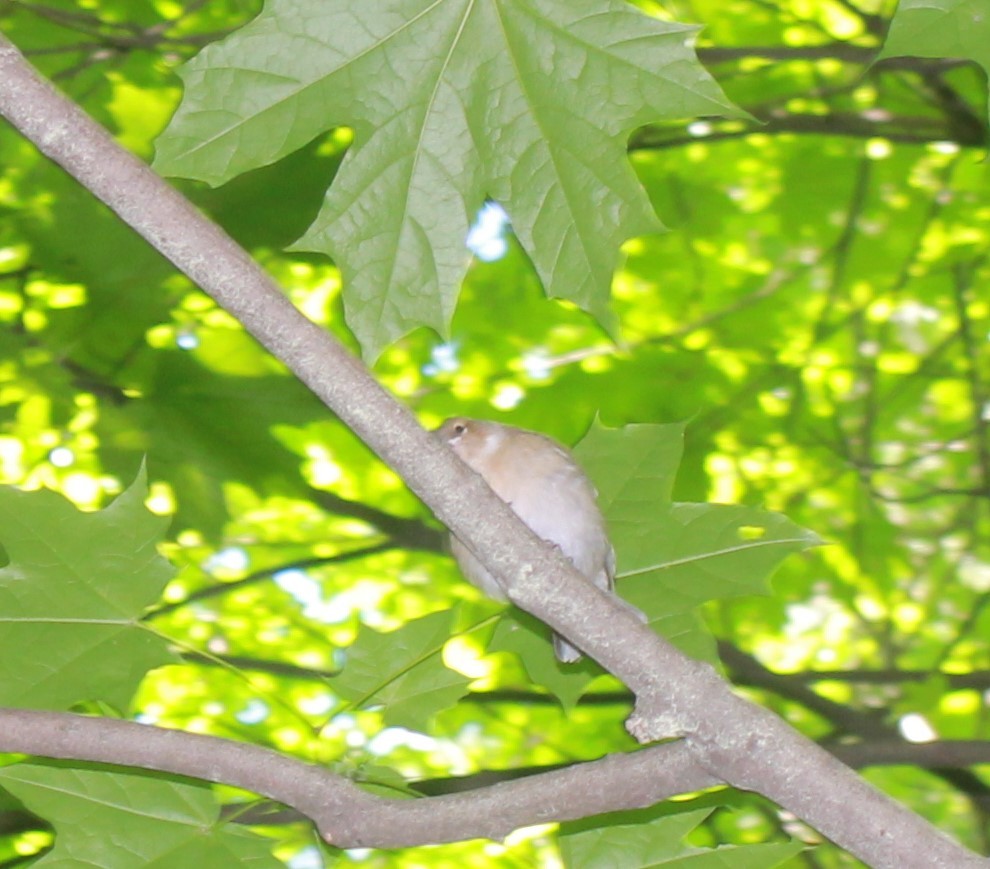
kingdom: Animalia
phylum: Chordata
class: Aves
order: Passeriformes
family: Fringillidae
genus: Fringilla
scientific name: Fringilla coelebs
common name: Common chaffinch
